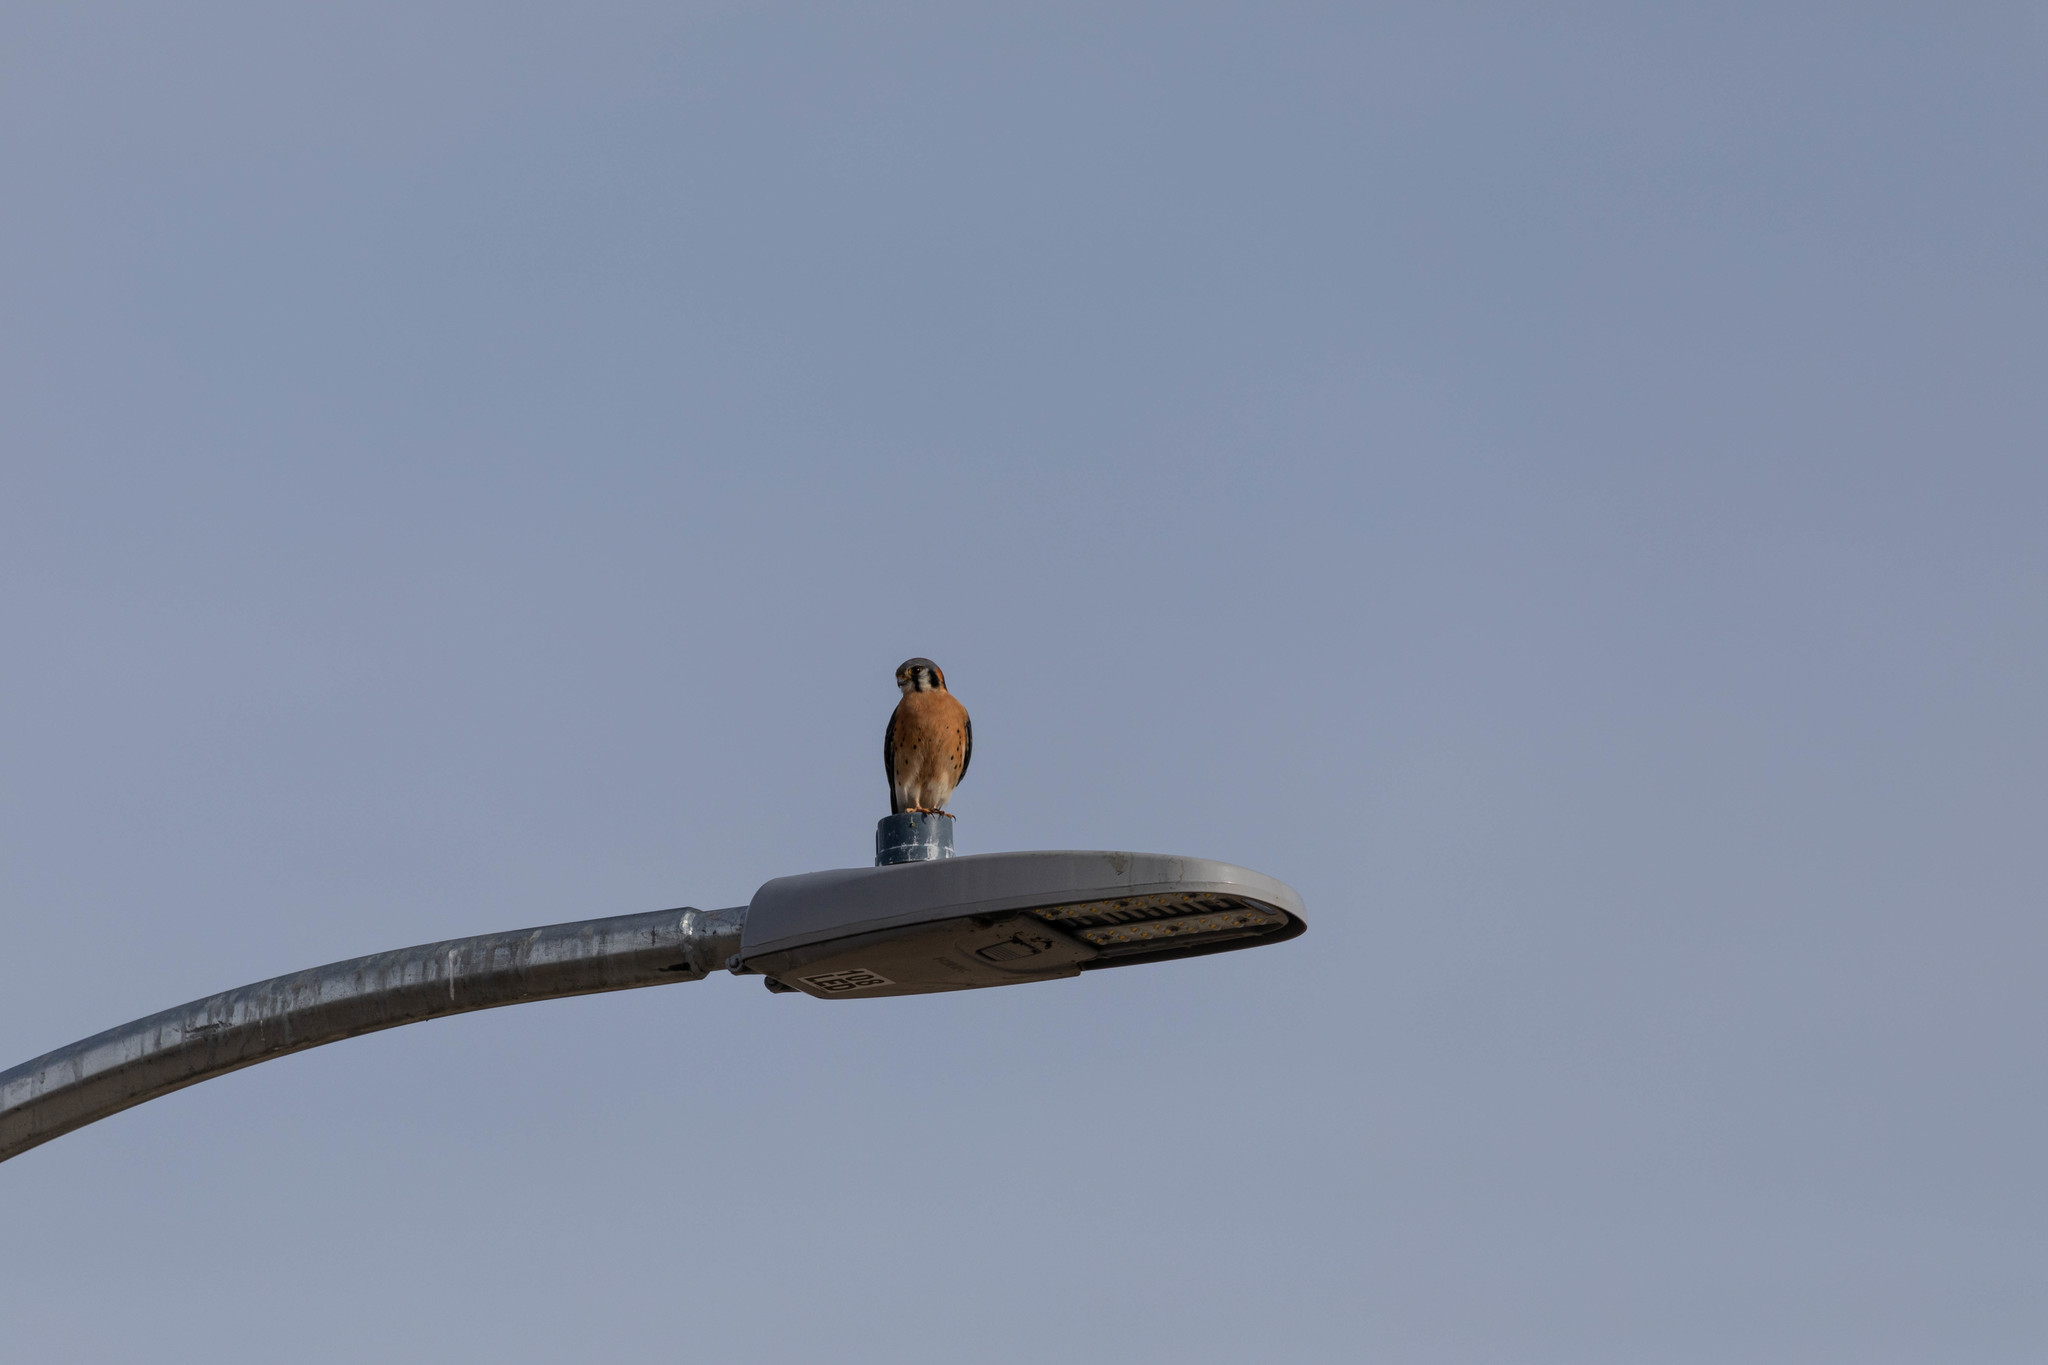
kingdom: Animalia
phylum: Chordata
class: Aves
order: Falconiformes
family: Falconidae
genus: Falco
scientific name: Falco sparverius
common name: American kestrel
